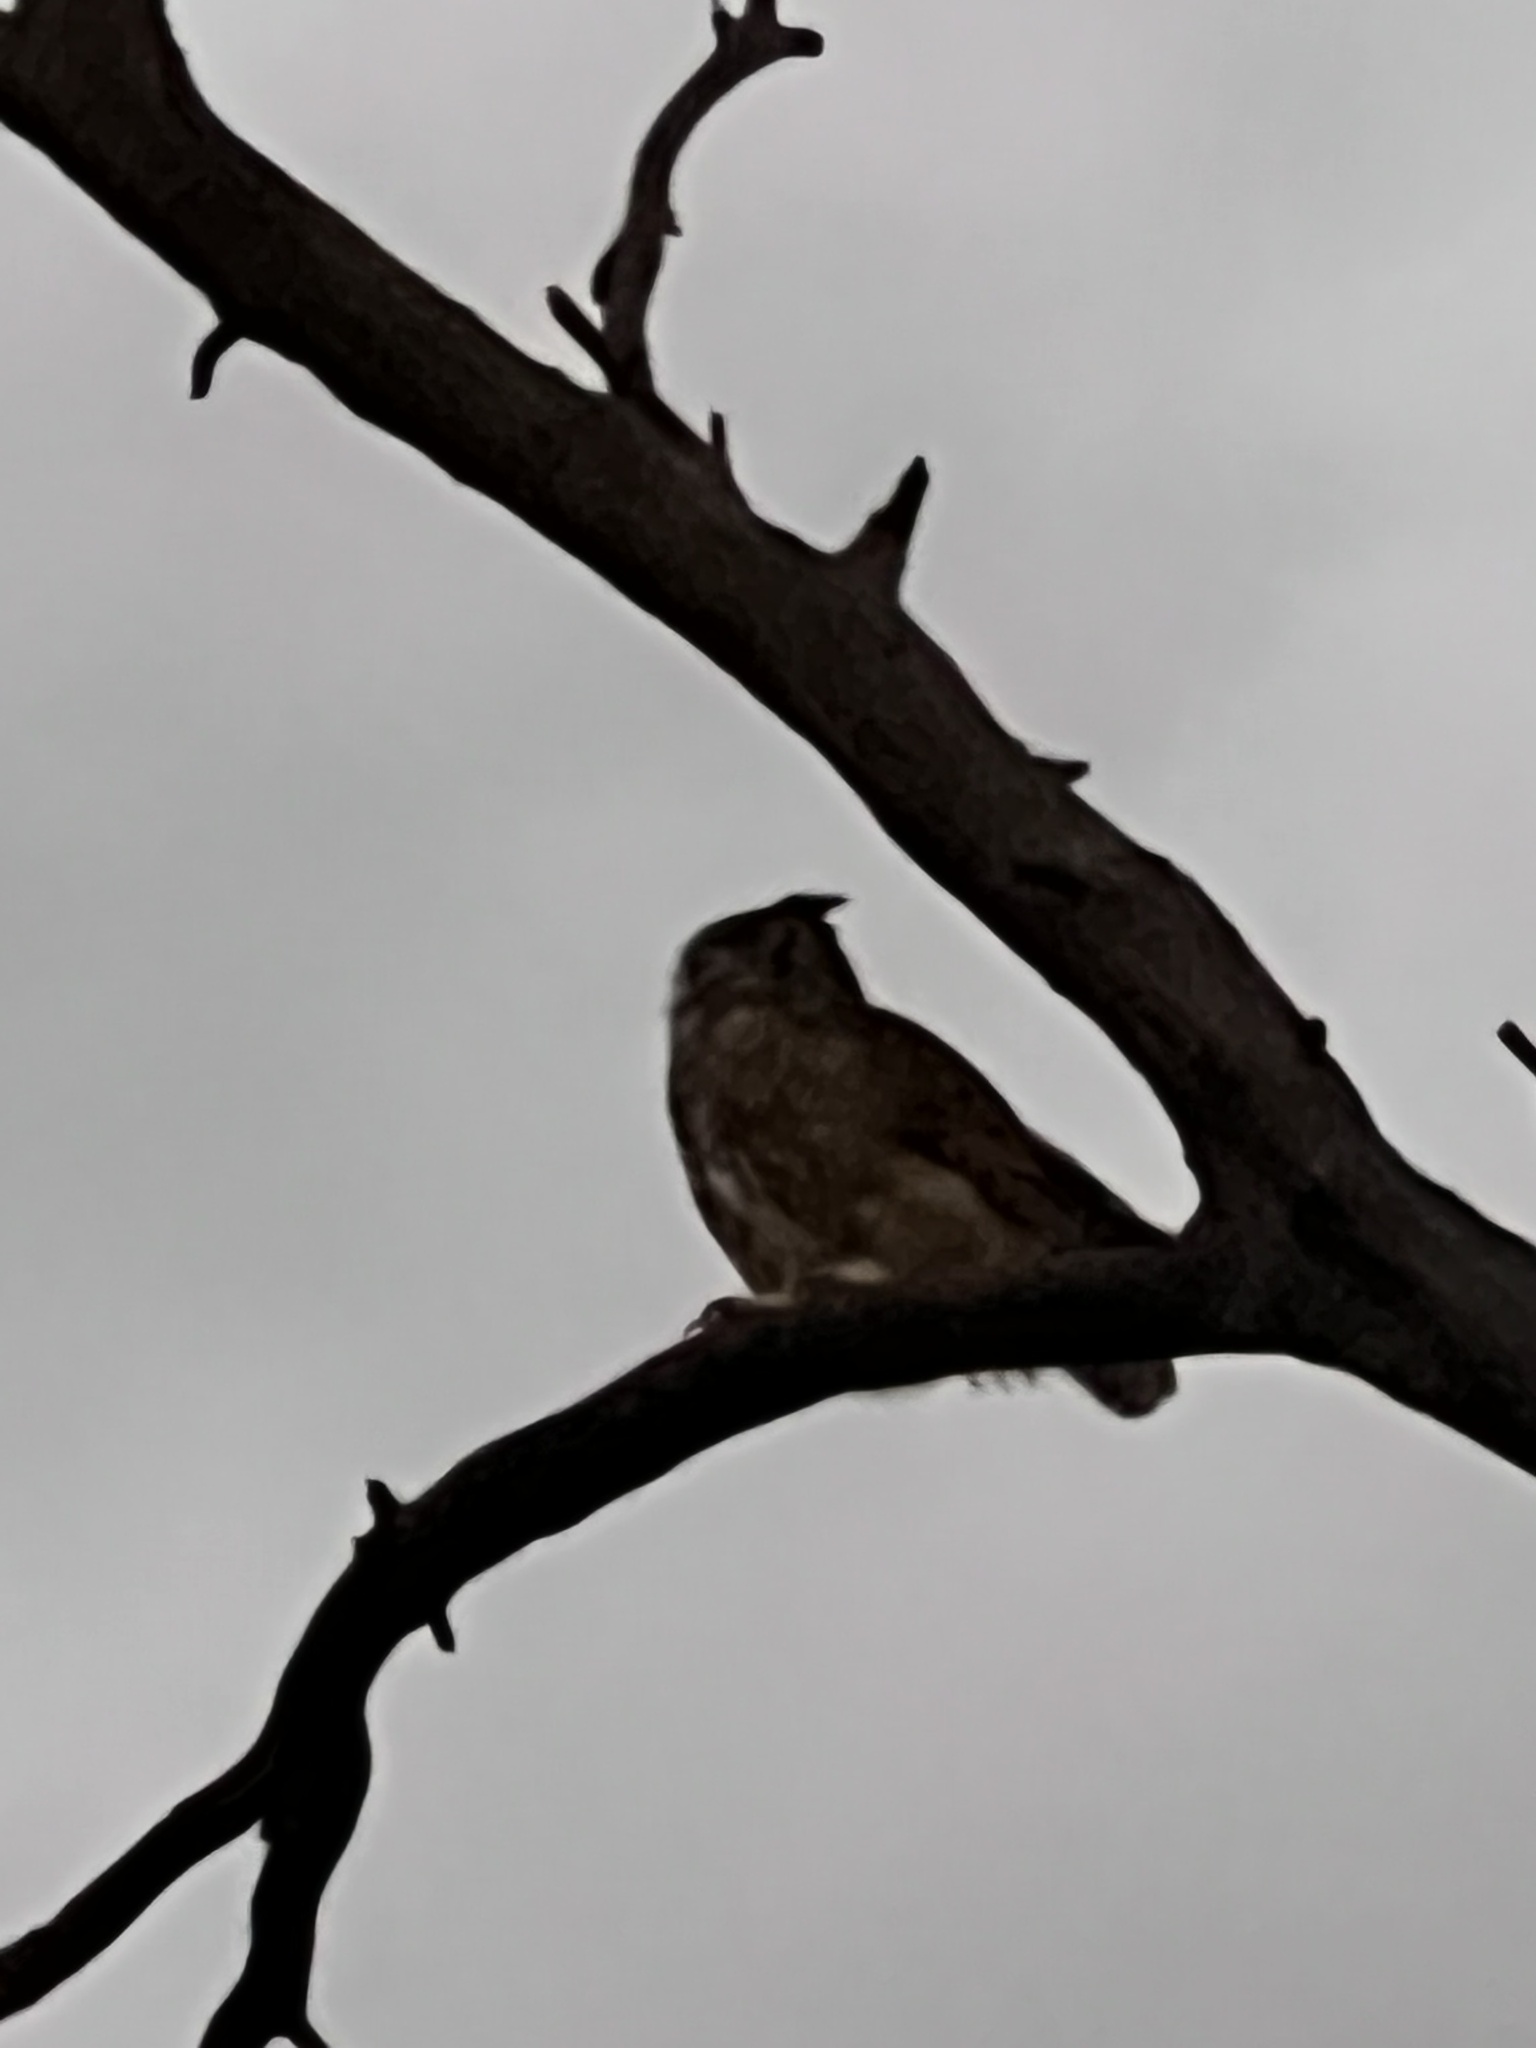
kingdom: Animalia
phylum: Chordata
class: Aves
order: Strigiformes
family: Strigidae
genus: Bubo
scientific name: Bubo virginianus
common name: Great horned owl
